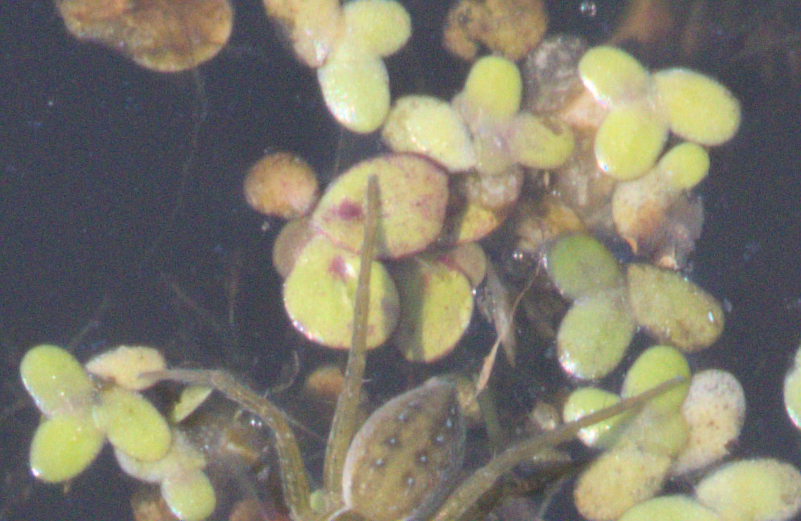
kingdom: Plantae
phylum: Tracheophyta
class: Liliopsida
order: Alismatales
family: Araceae
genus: Spirodela
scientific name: Spirodela polyrhiza
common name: Great duckweed
